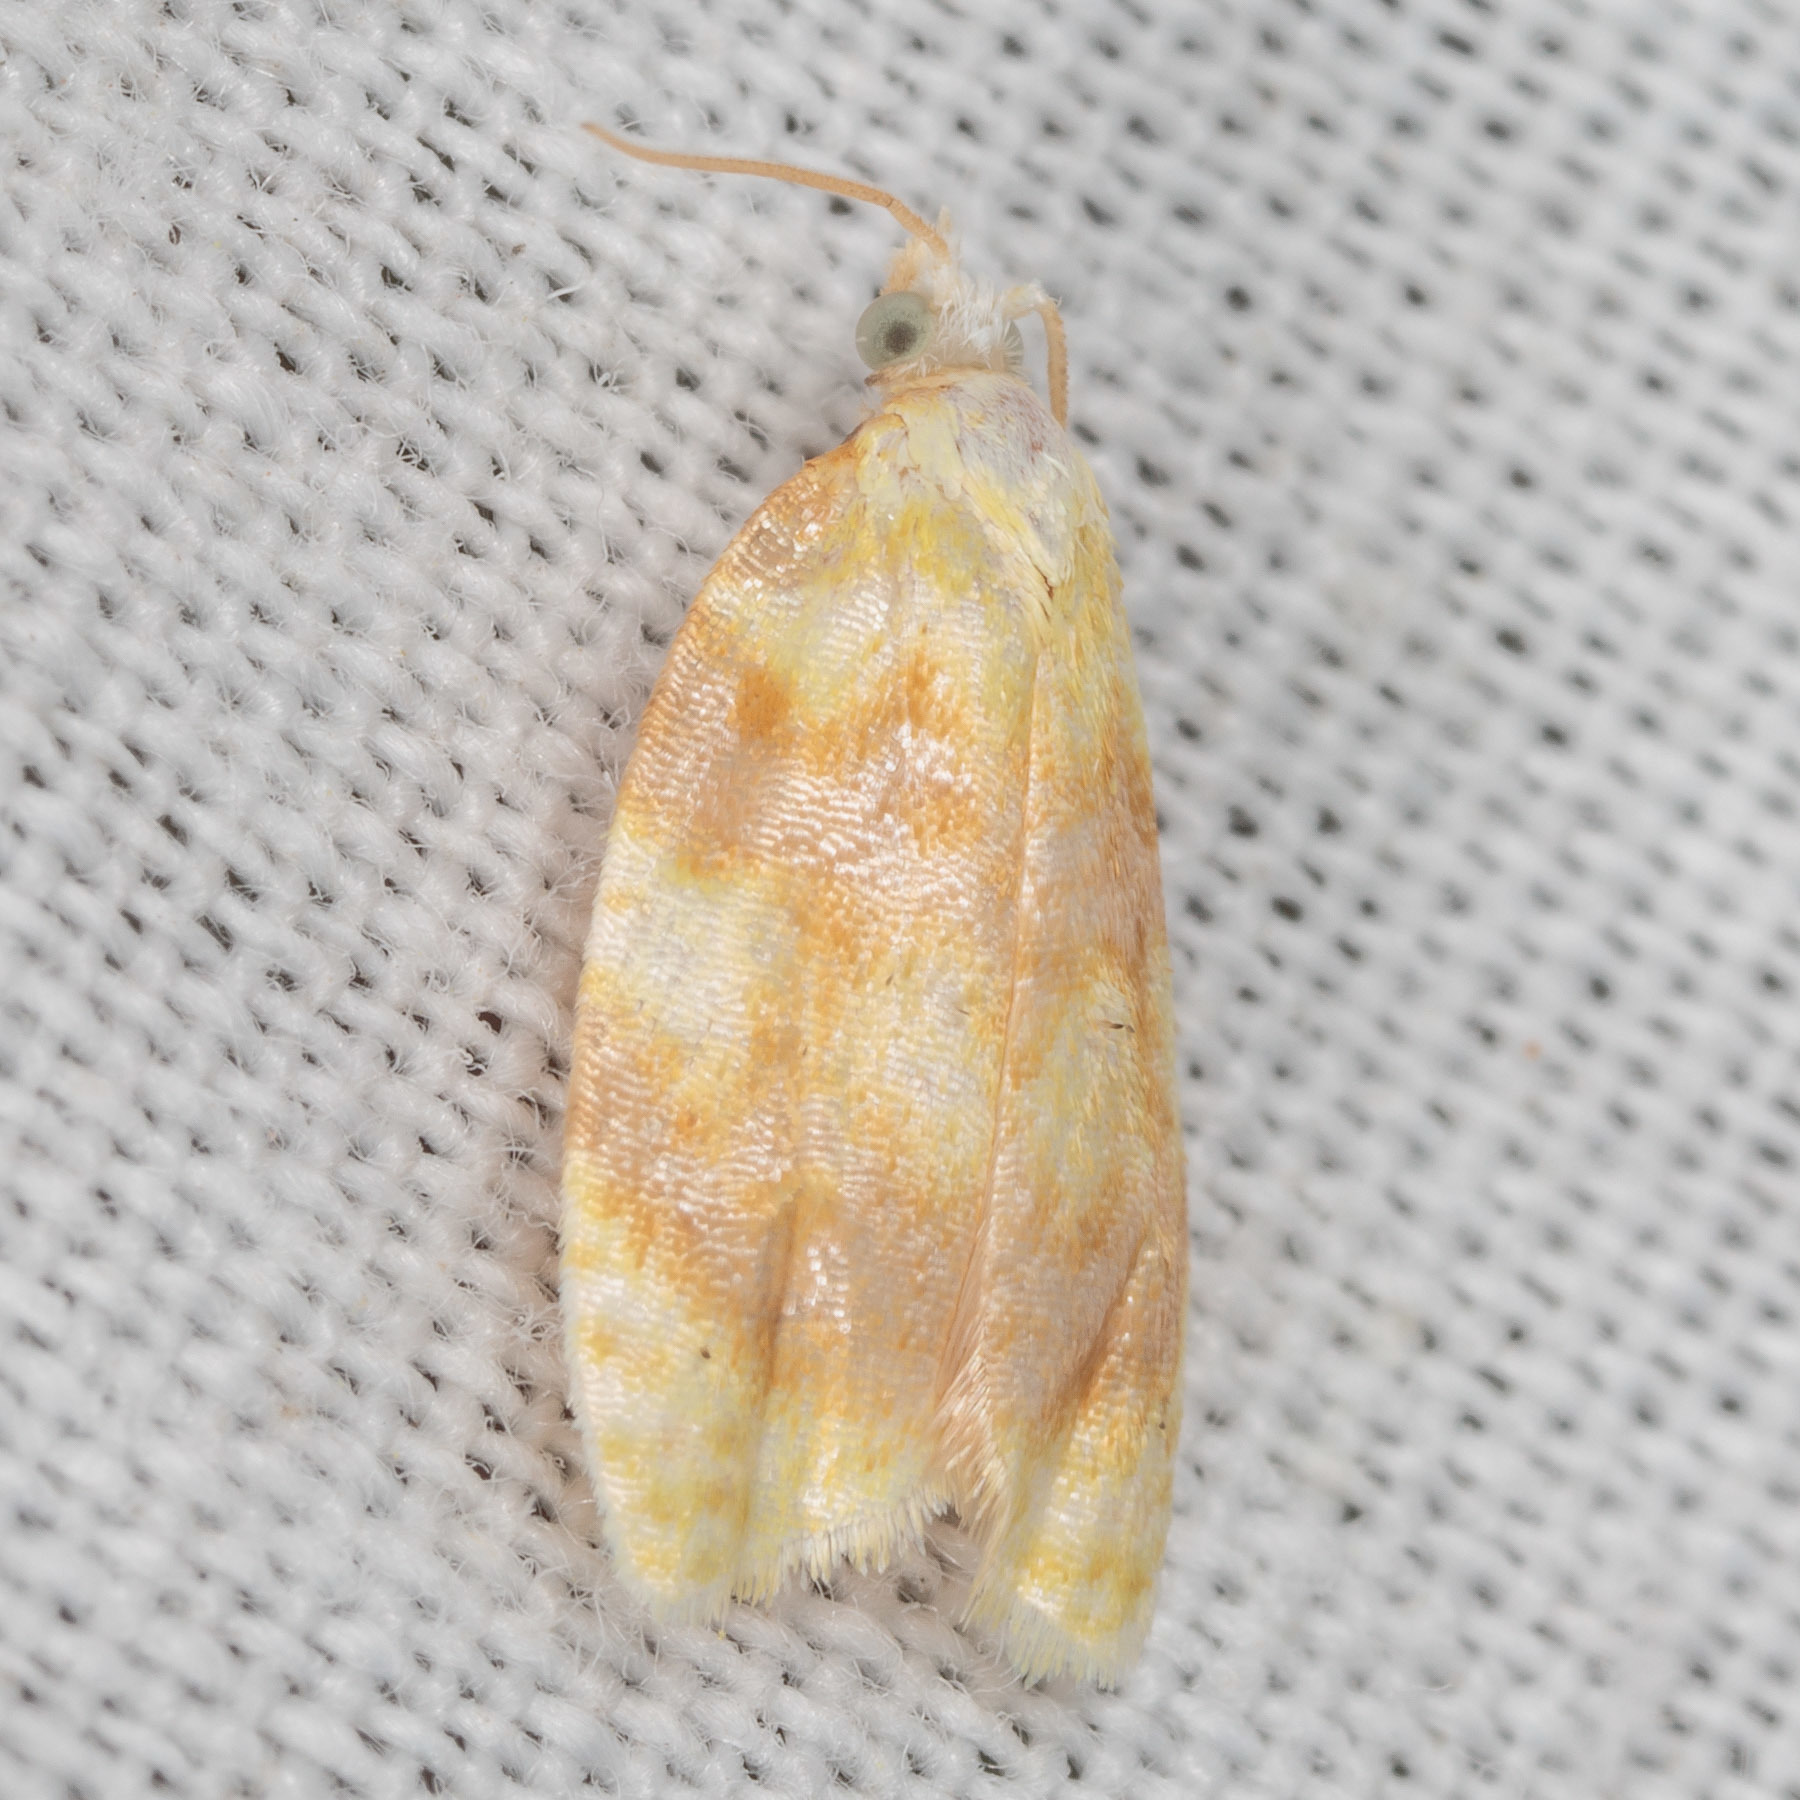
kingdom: Animalia
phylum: Arthropoda
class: Insecta
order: Lepidoptera
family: Tortricidae
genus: Acleris
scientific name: Acleris semipurpurana
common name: Oak leaftier moth
